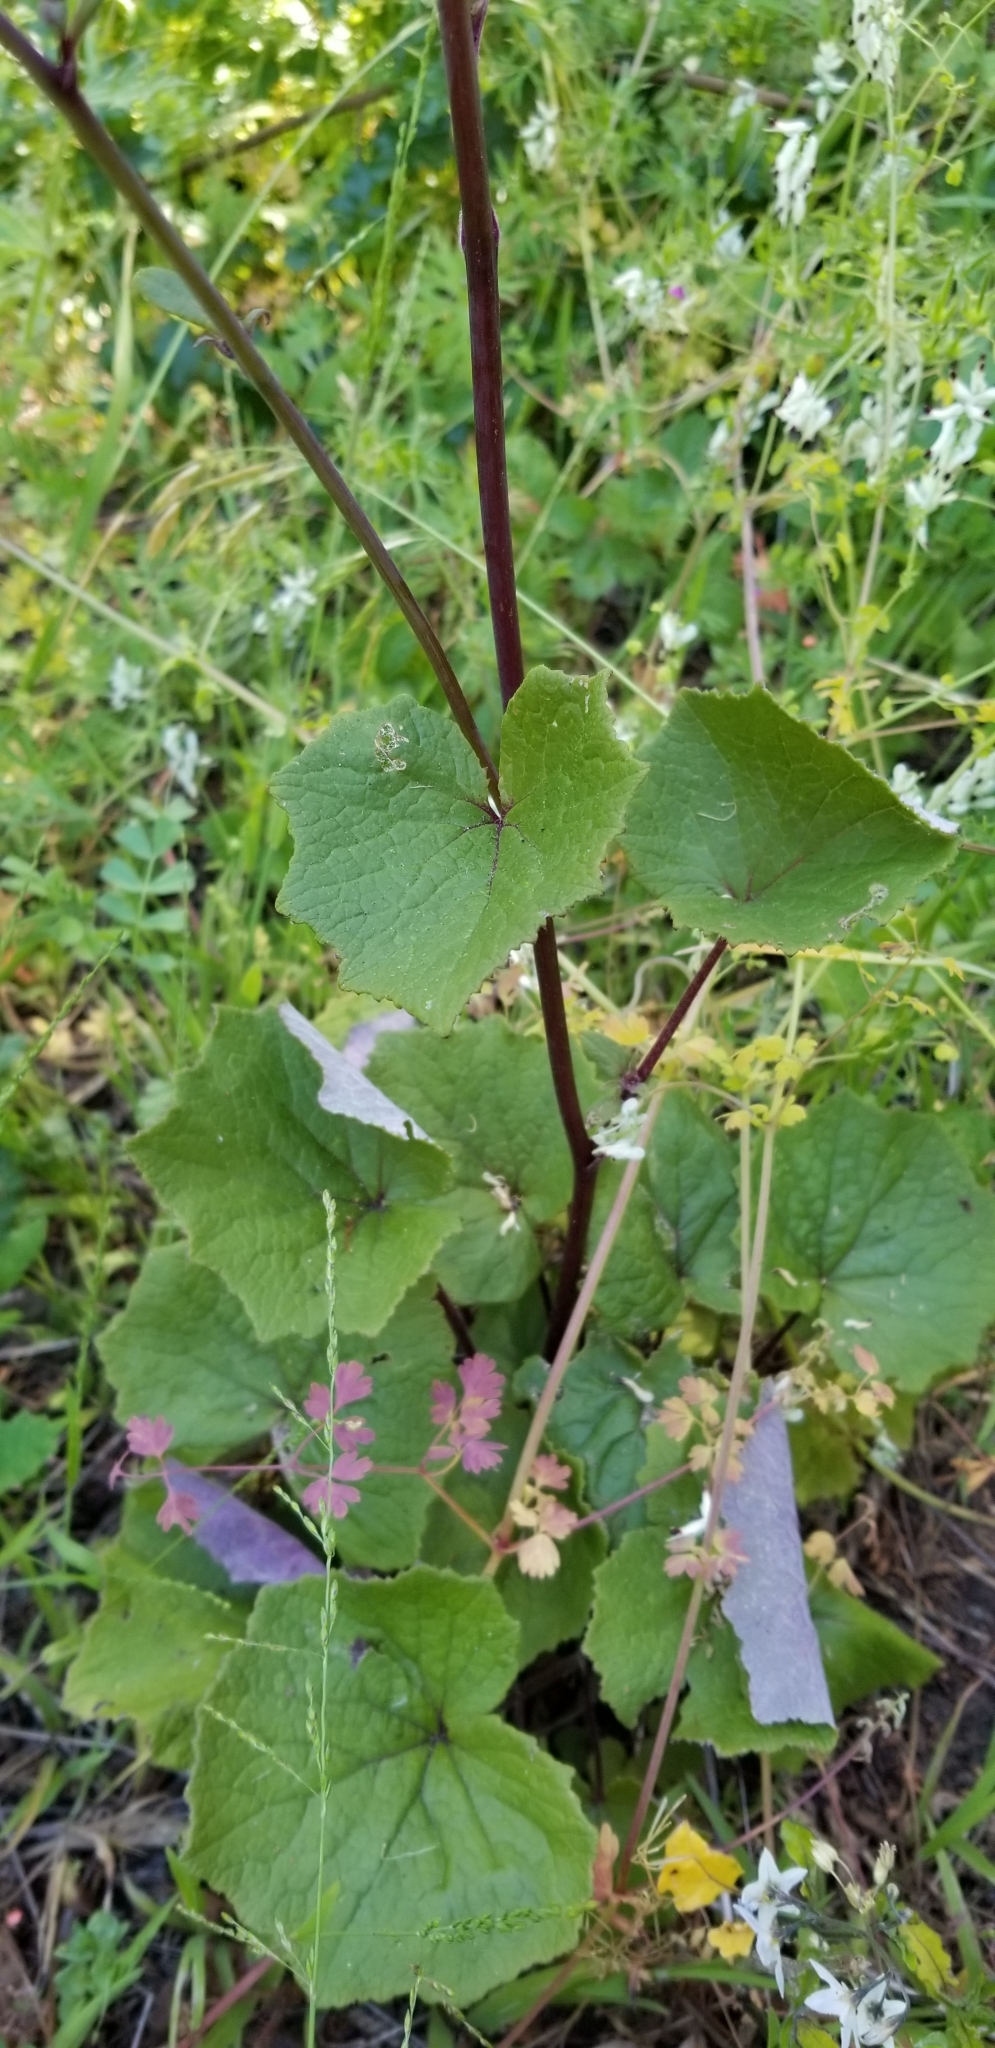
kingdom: Plantae
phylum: Tracheophyta
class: Magnoliopsida
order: Asterales
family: Asteraceae
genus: Pericallis
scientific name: Pericallis hybrida
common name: Cineraria
